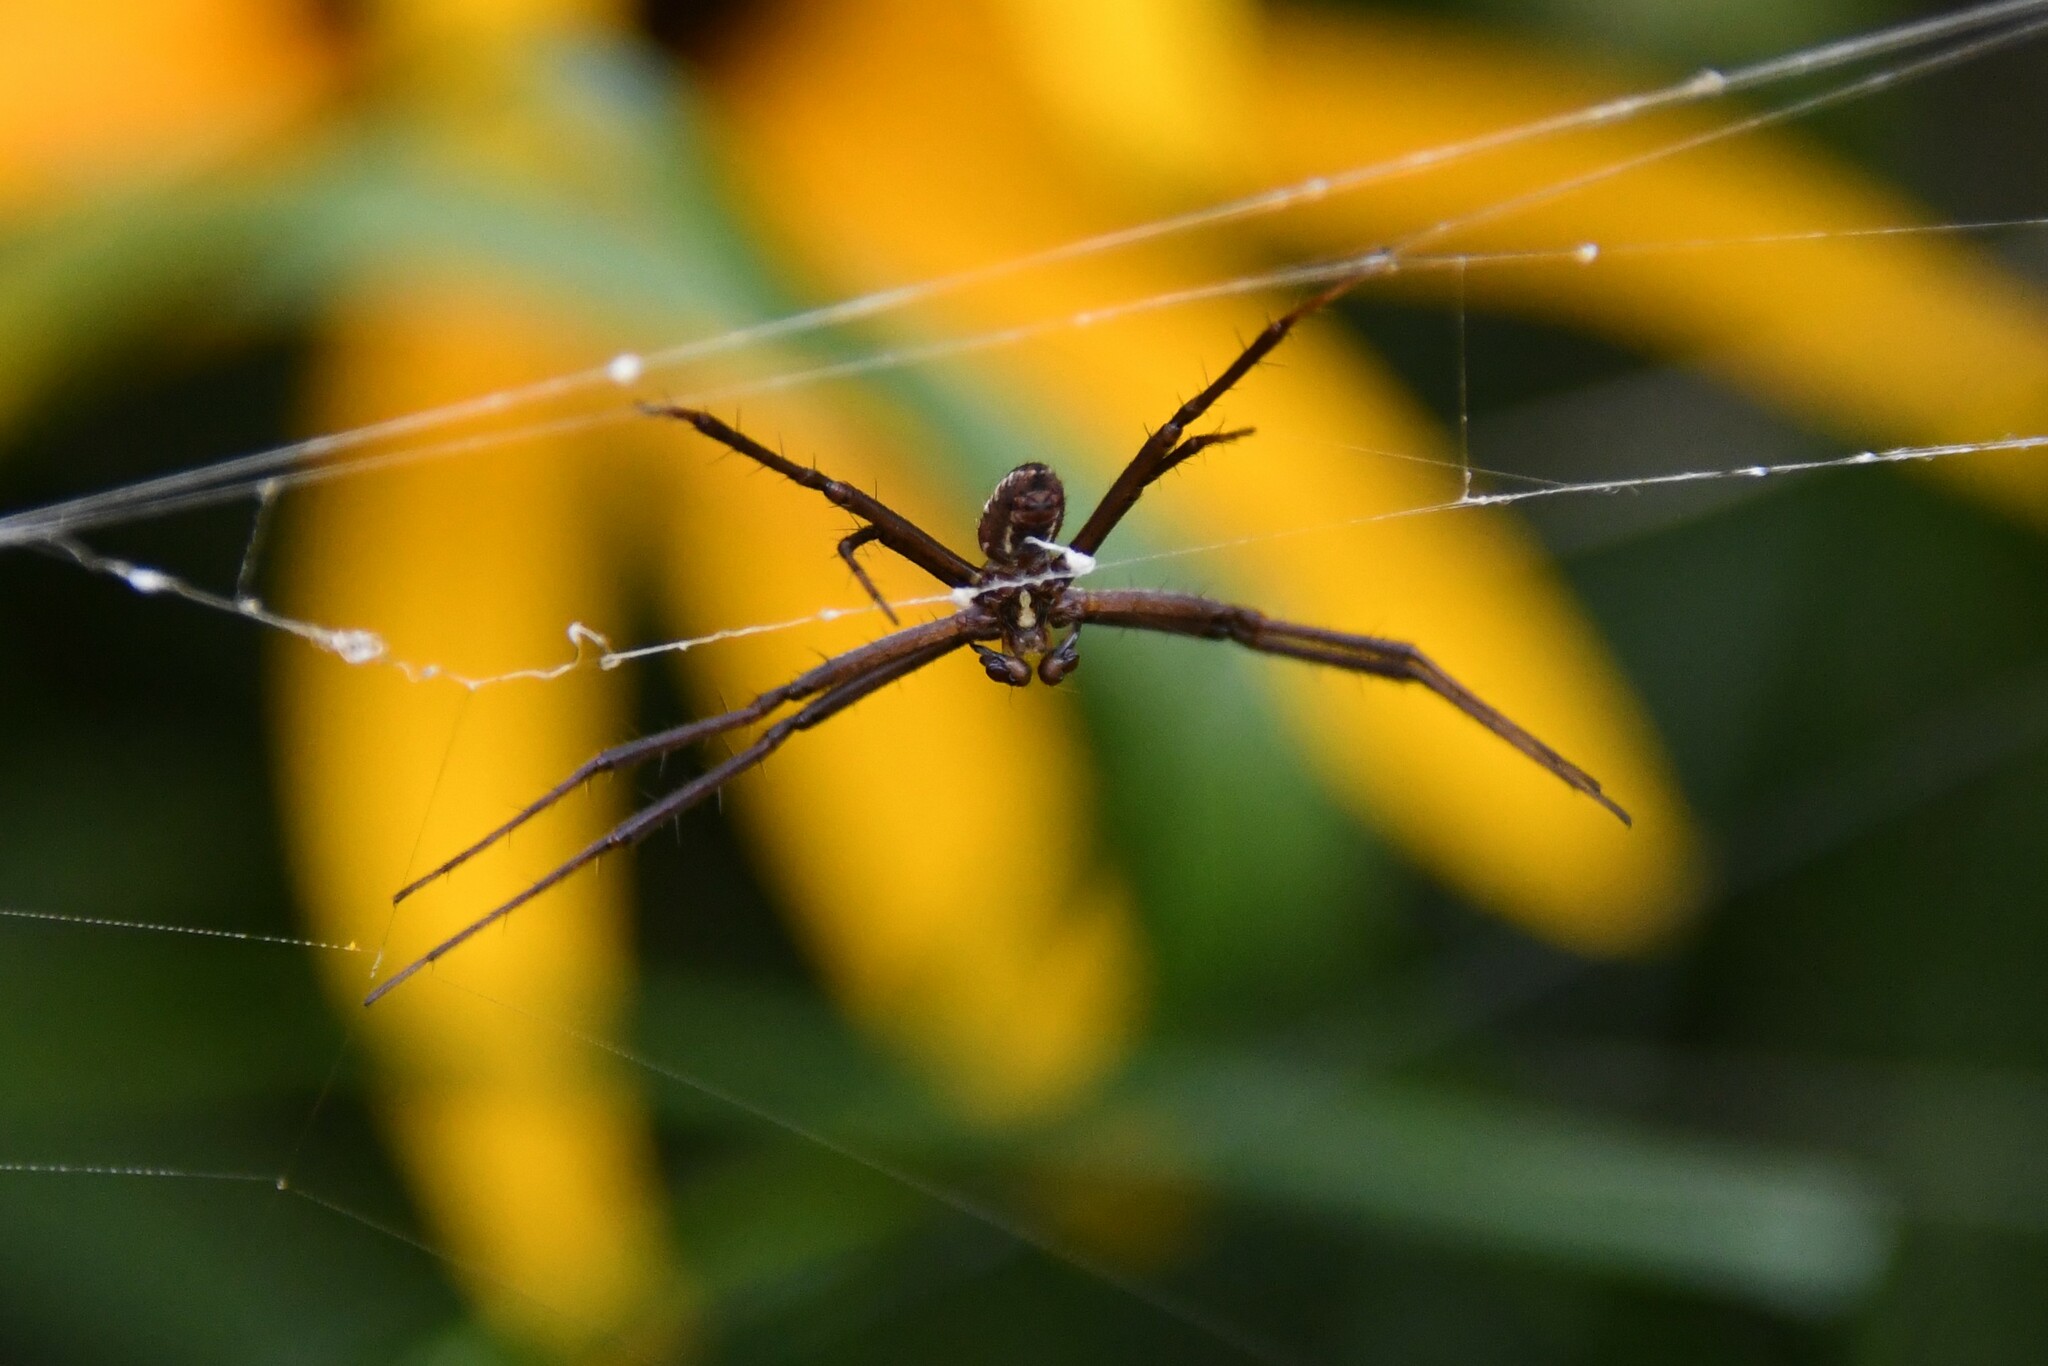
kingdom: Animalia
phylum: Arthropoda
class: Arachnida
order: Araneae
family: Araneidae
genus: Argiope
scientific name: Argiope aurantia
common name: Orb weavers
